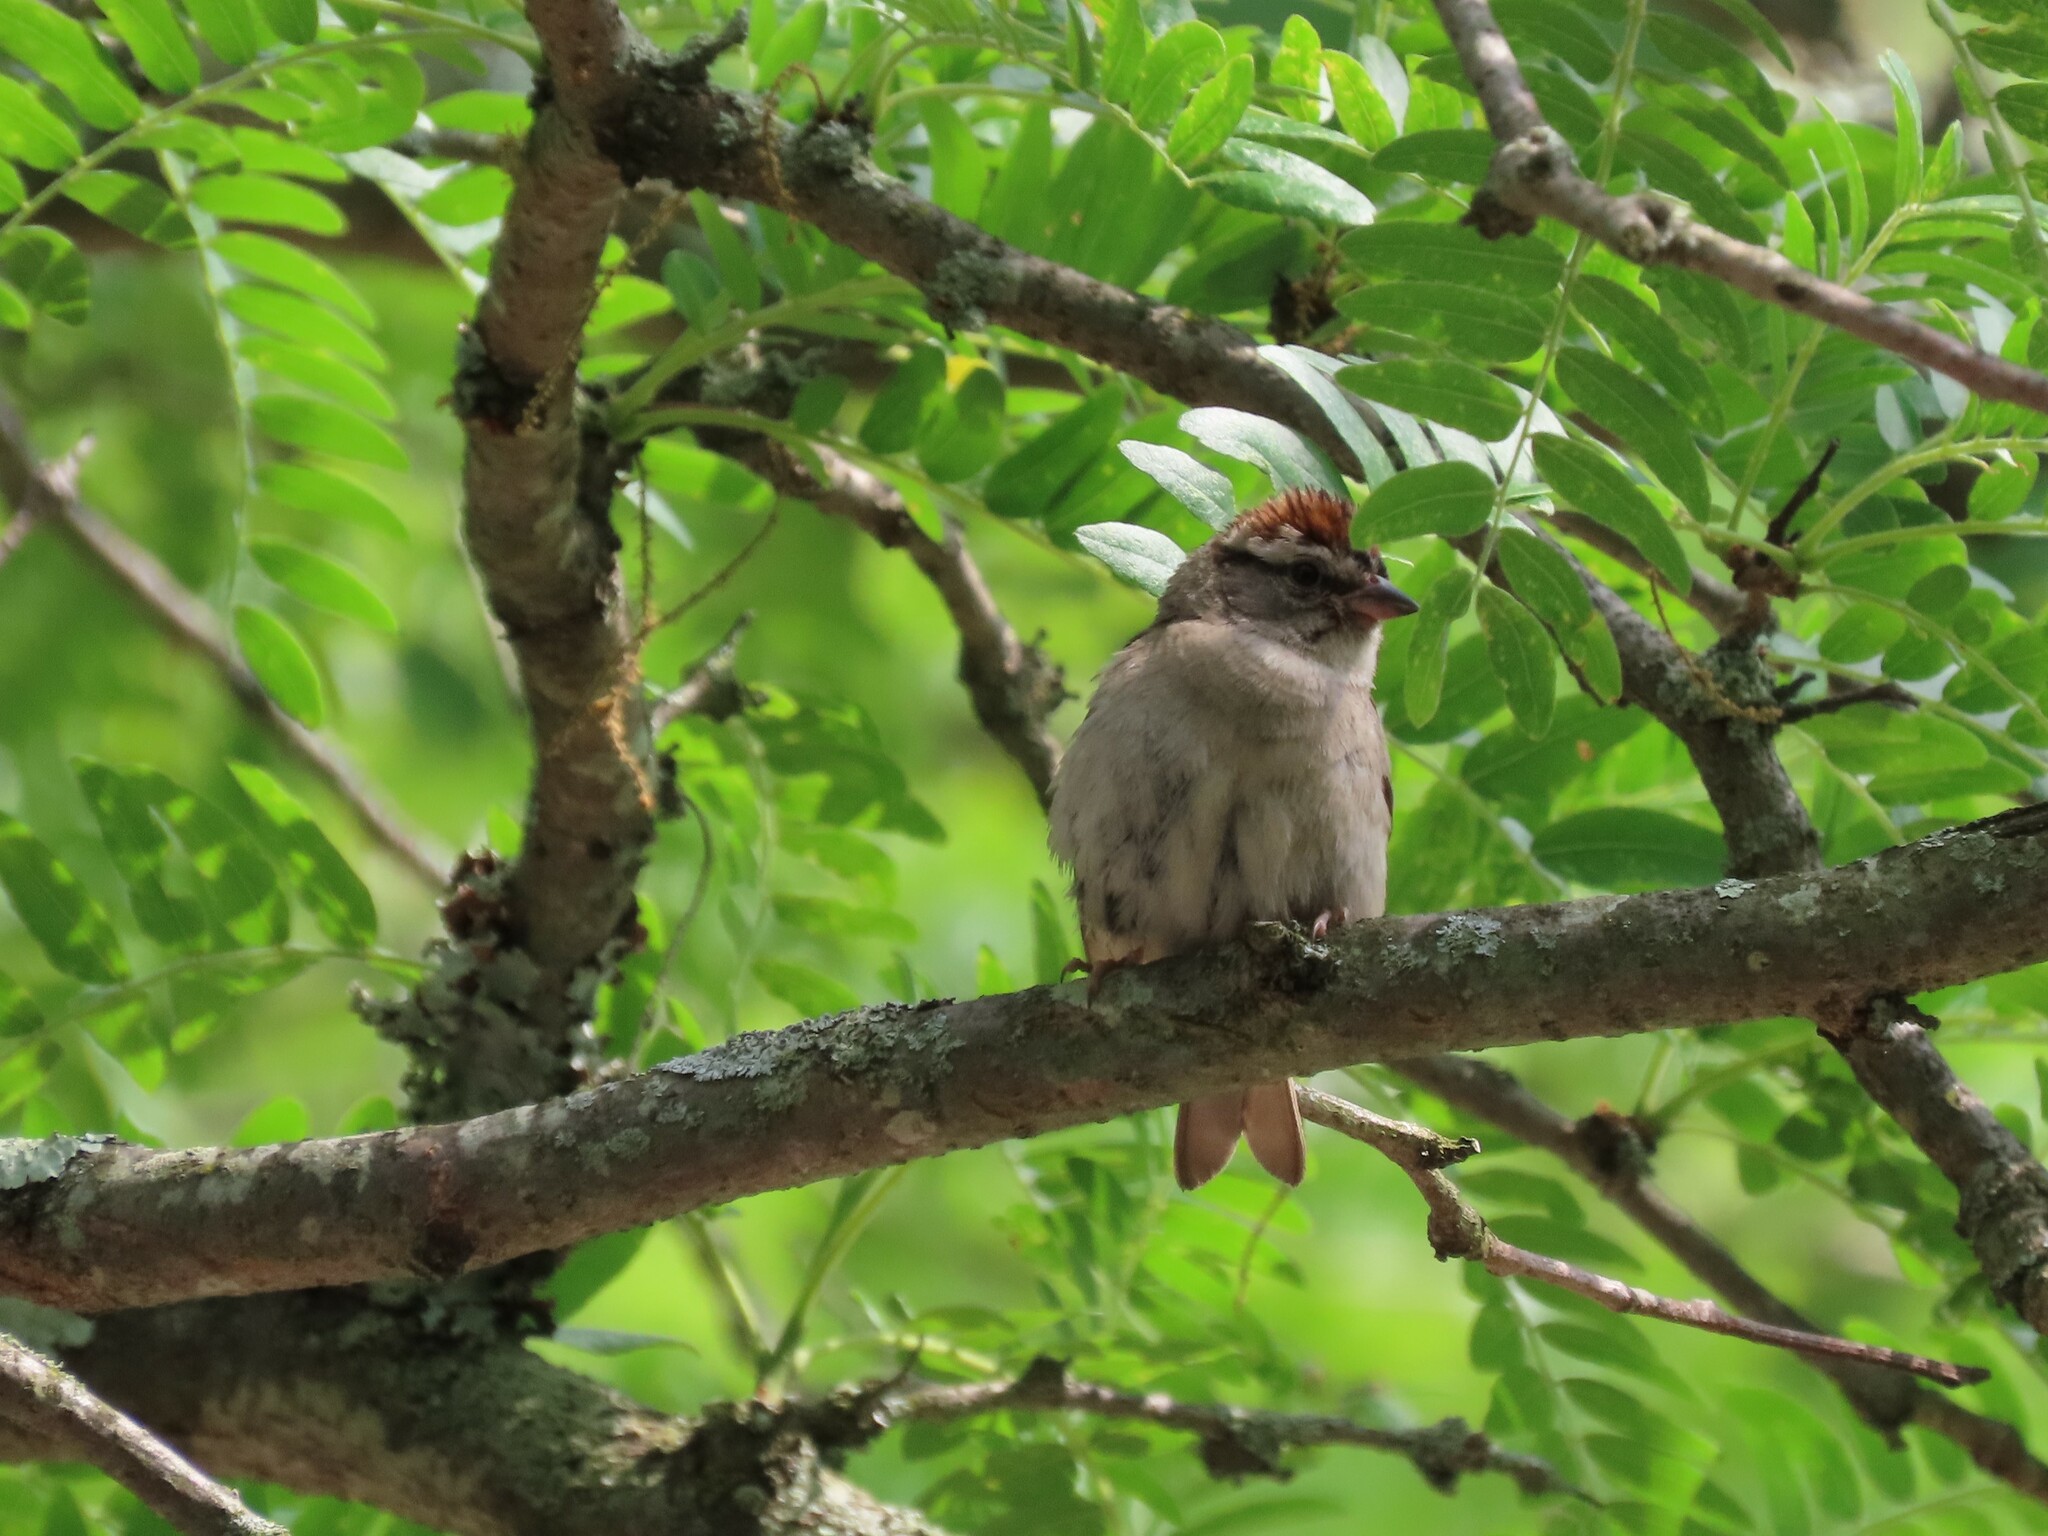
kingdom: Animalia
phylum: Chordata
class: Aves
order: Passeriformes
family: Passerellidae
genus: Spizella
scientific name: Spizella passerina
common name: Chipping sparrow
